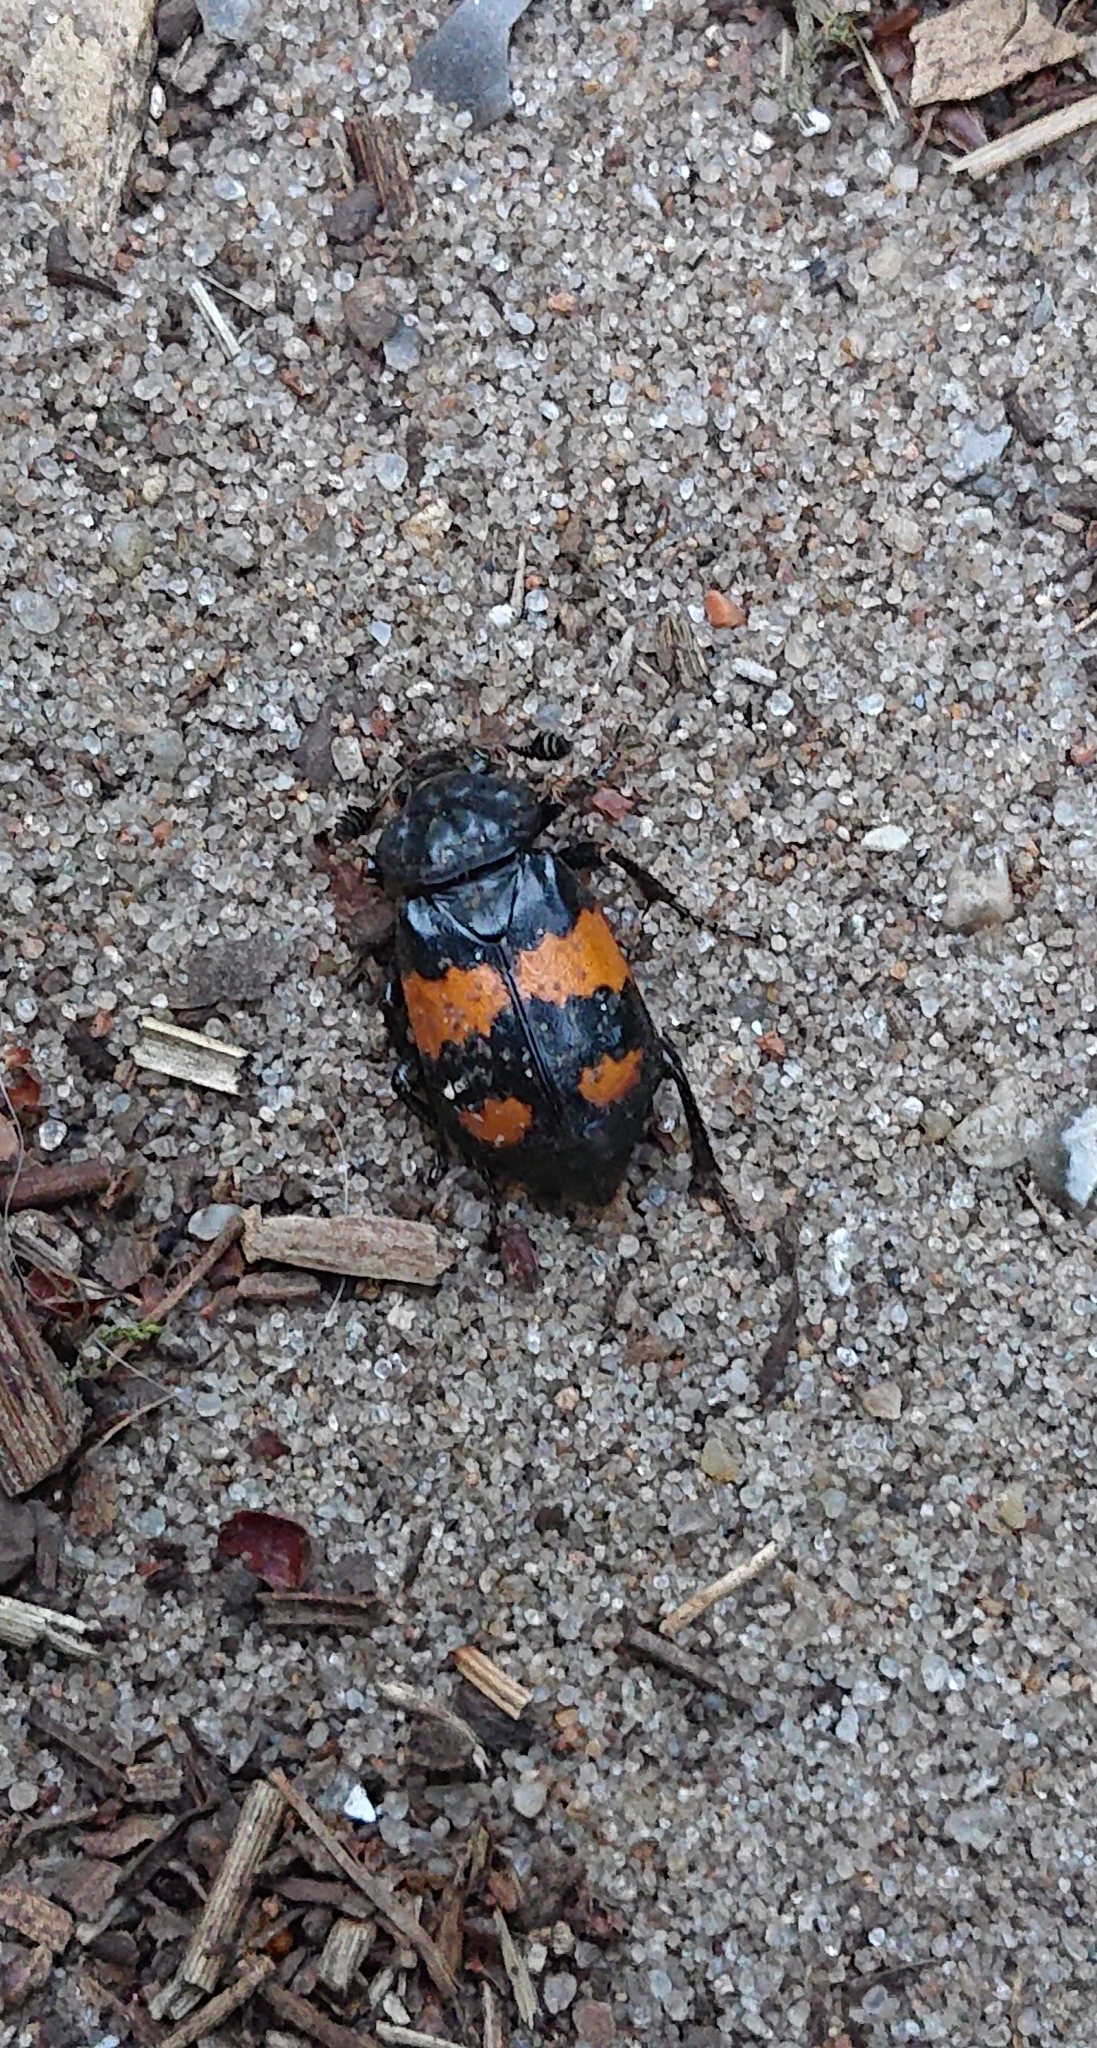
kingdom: Animalia
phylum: Arthropoda
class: Insecta
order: Coleoptera
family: Staphylinidae
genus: Nicrophorus
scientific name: Nicrophorus vespilloides
